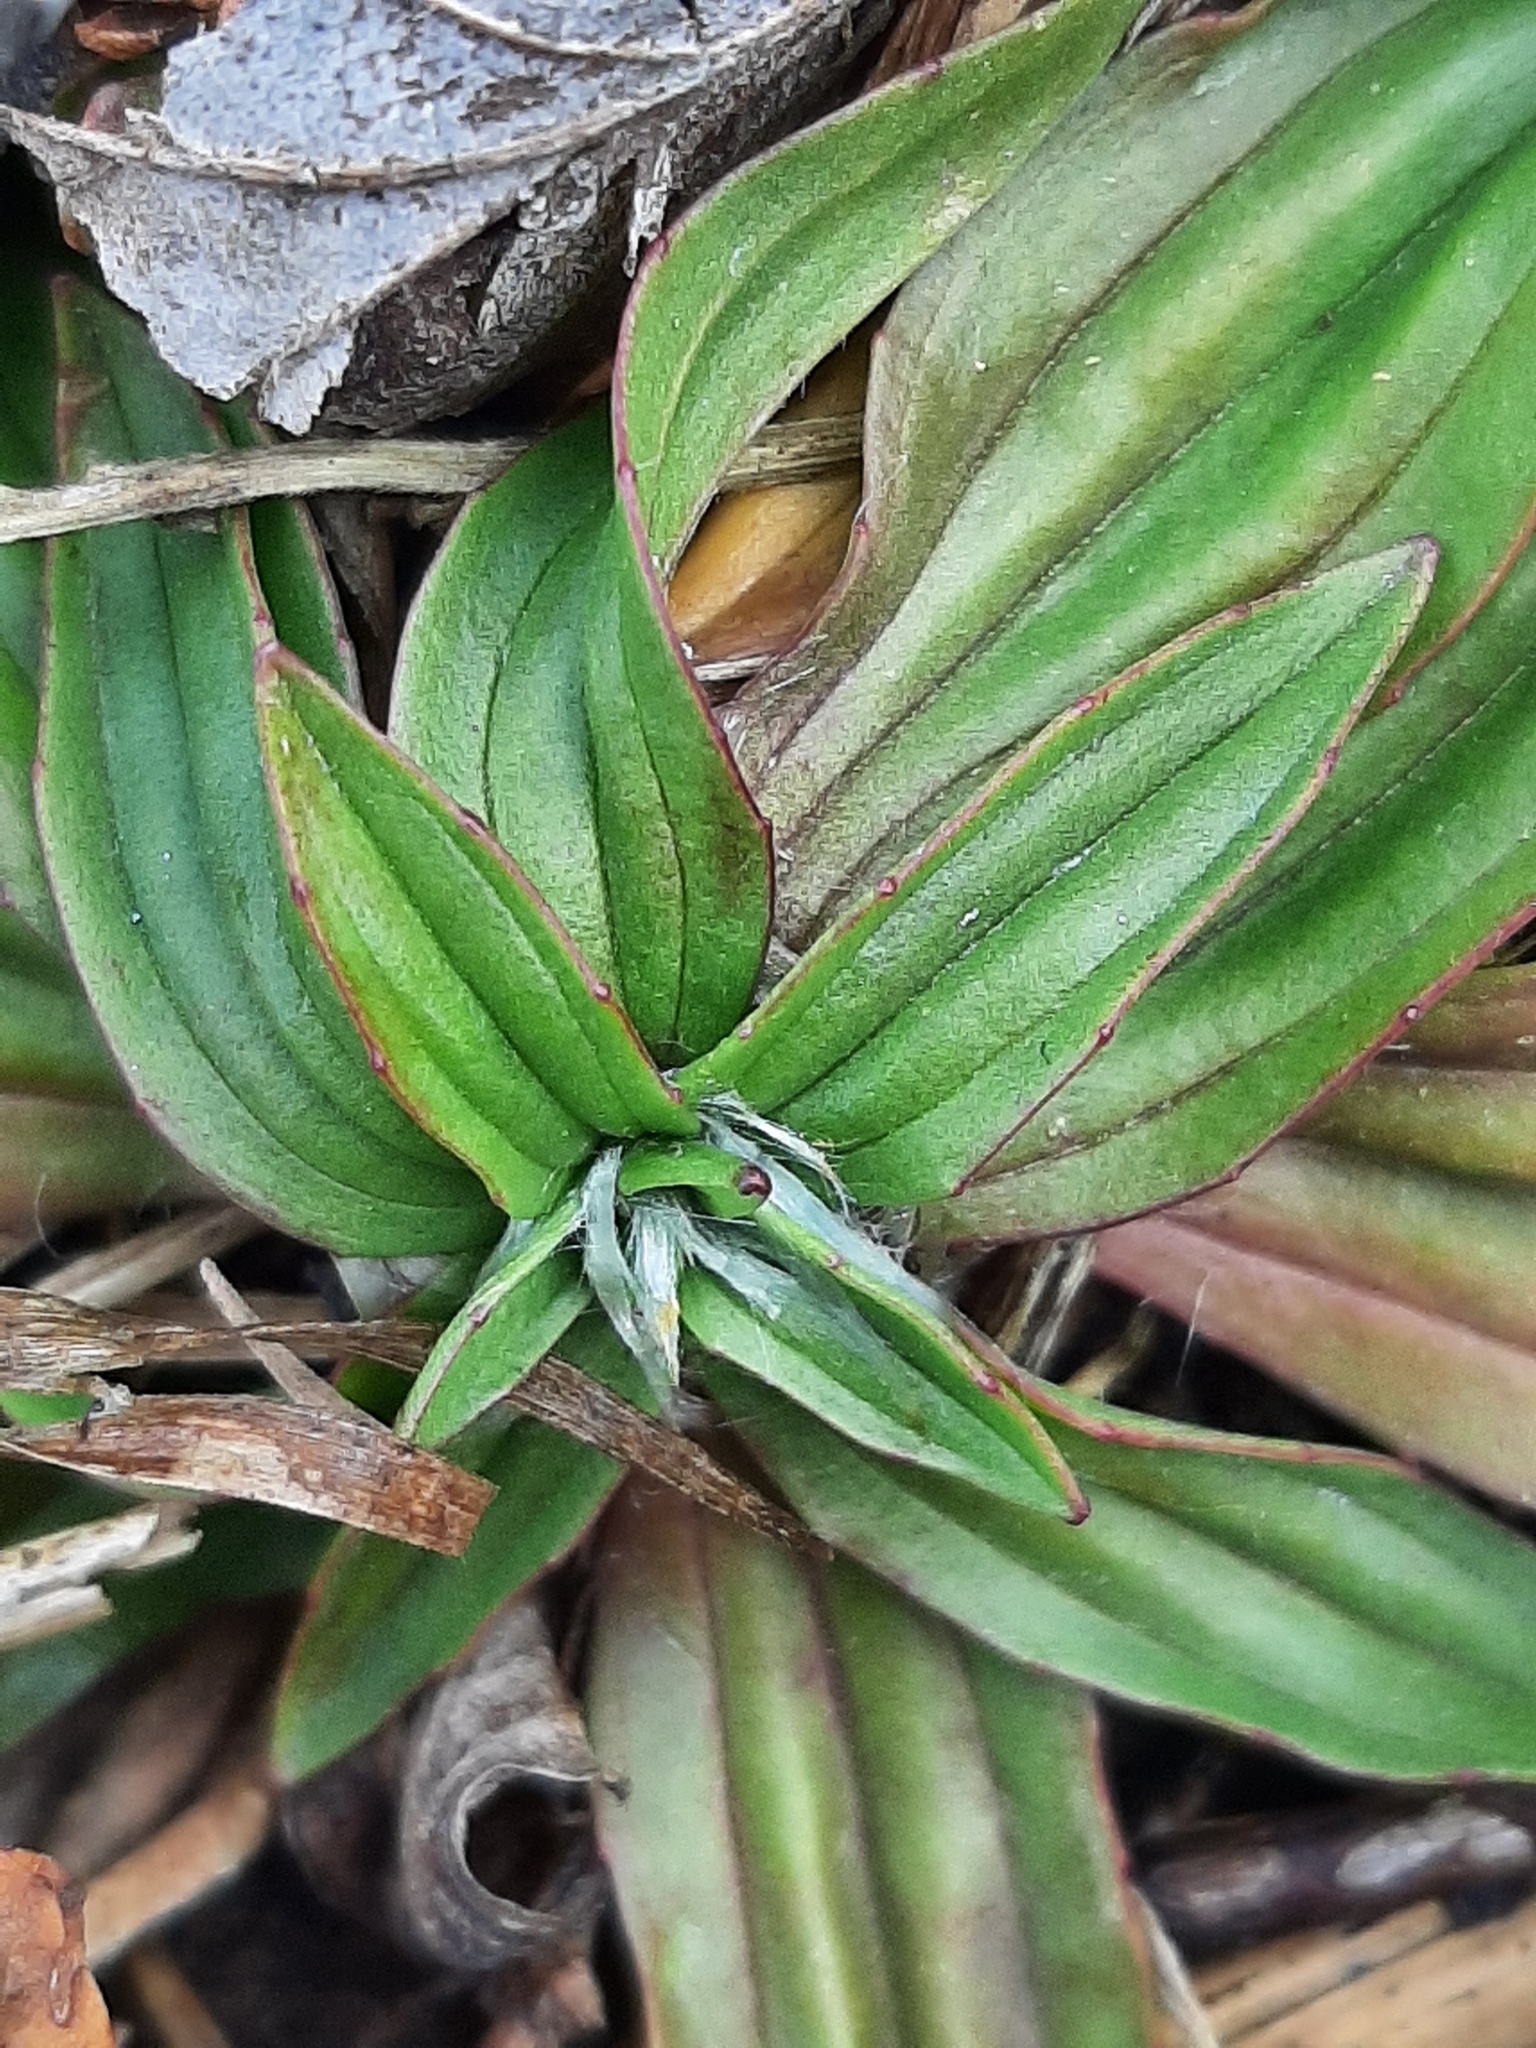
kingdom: Plantae
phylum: Tracheophyta
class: Magnoliopsida
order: Lamiales
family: Plantaginaceae
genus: Plantago
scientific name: Plantago lanceolata
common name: Ribwort plantain
